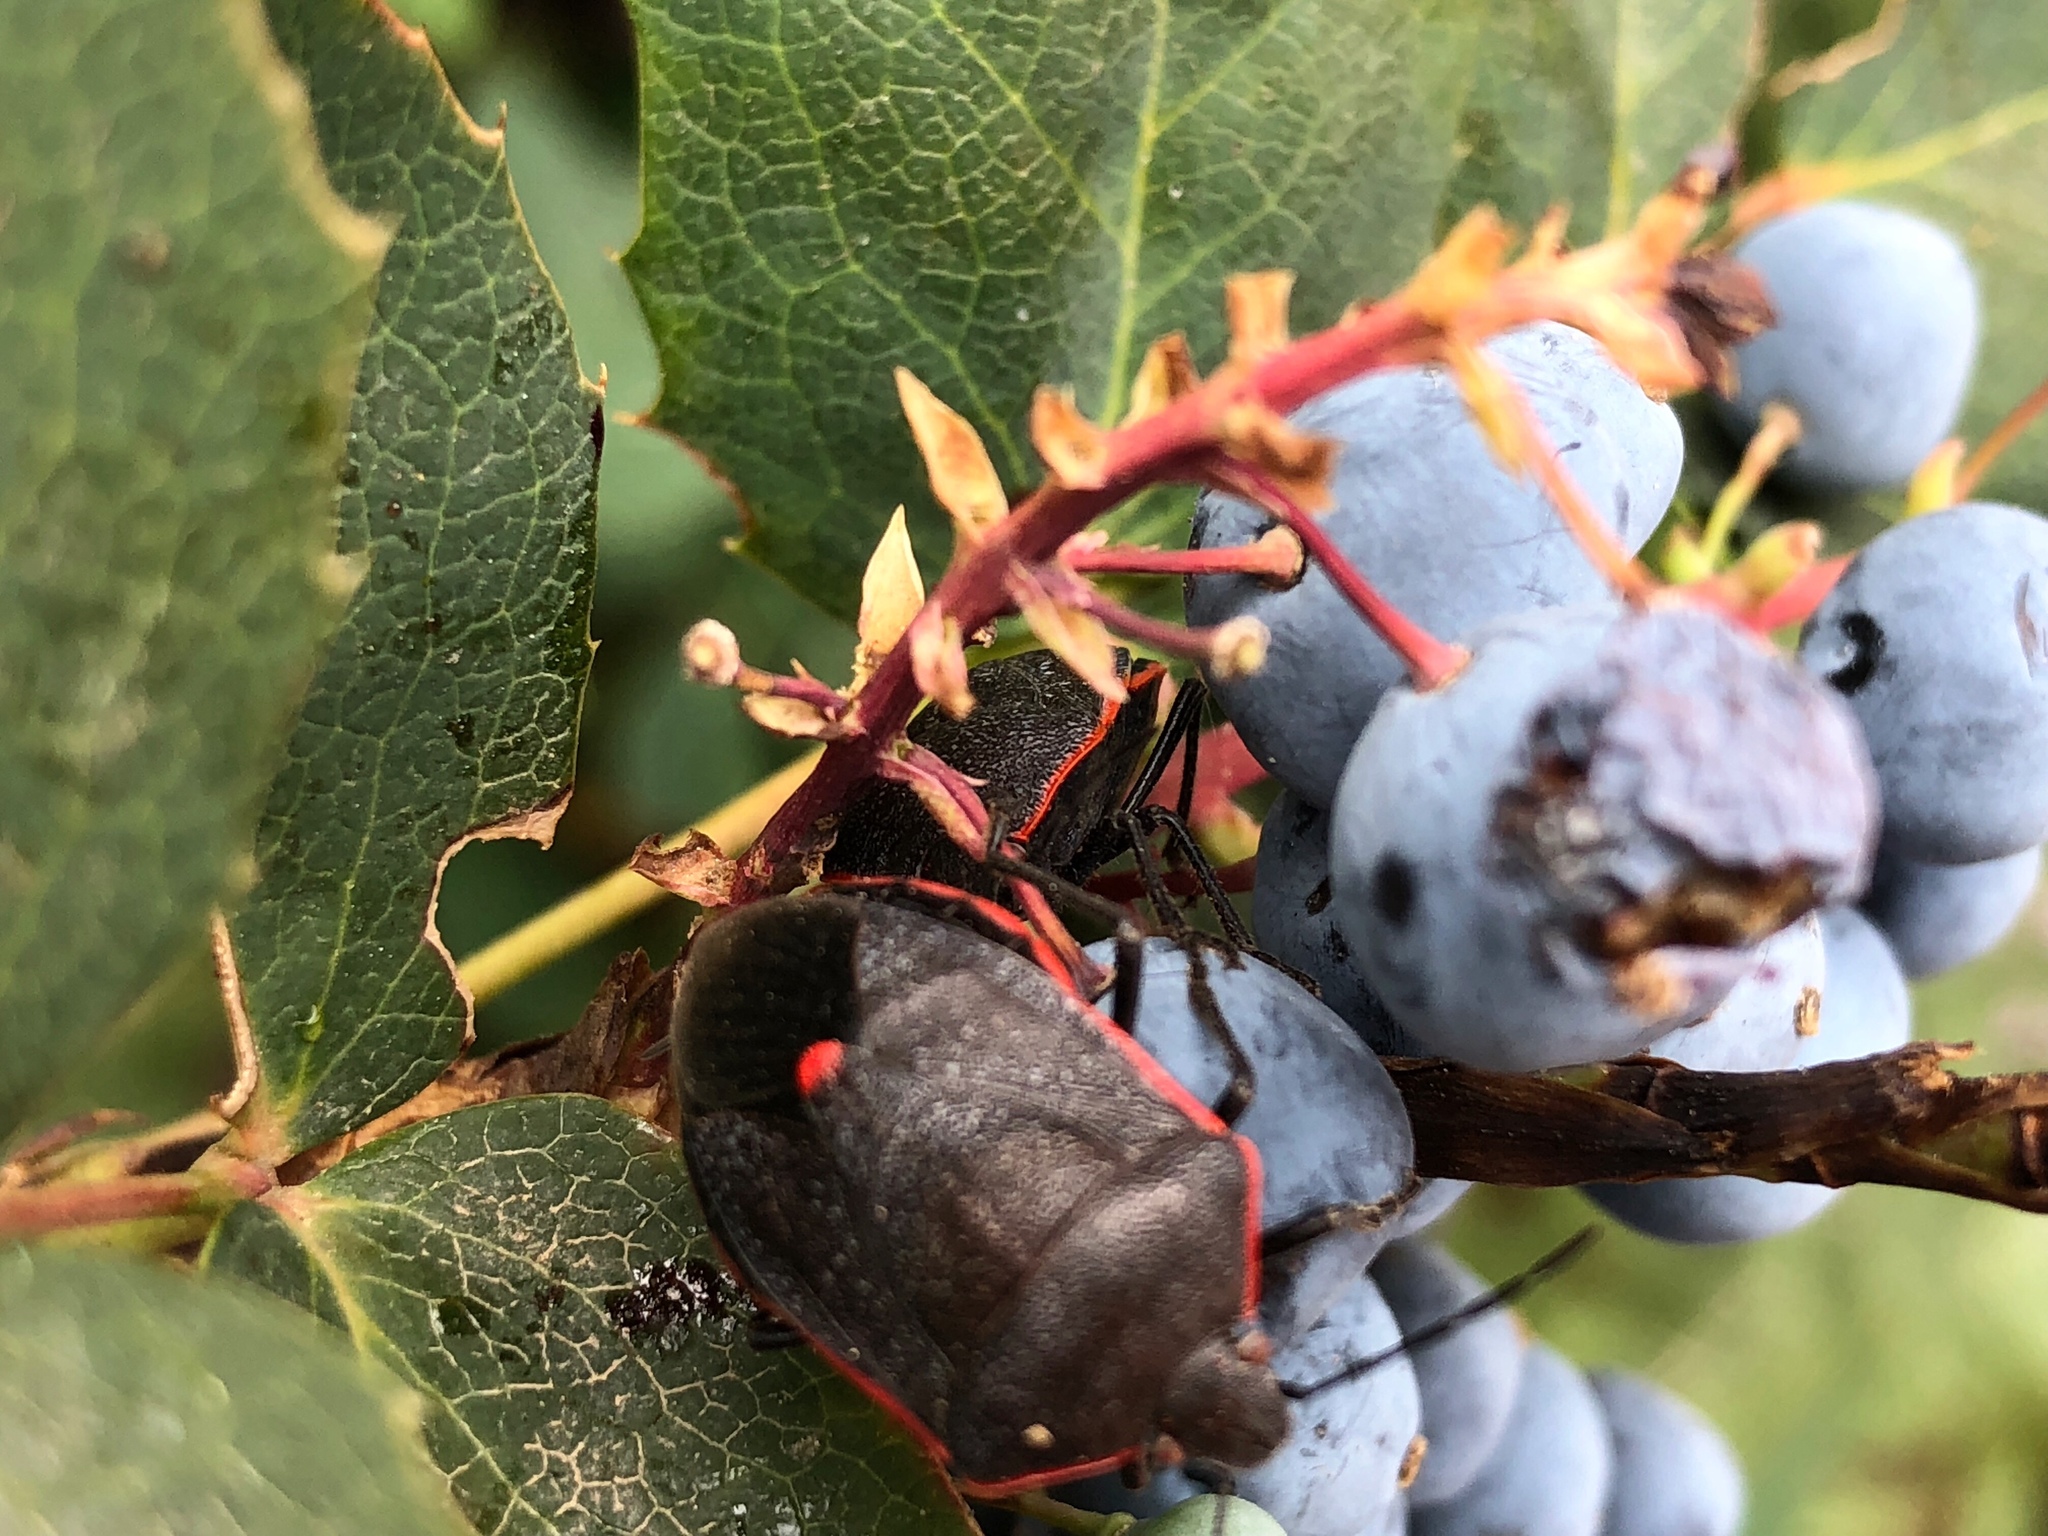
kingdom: Animalia
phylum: Arthropoda
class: Insecta
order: Hemiptera
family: Pentatomidae
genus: Chlorochroa
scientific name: Chlorochroa ligata
